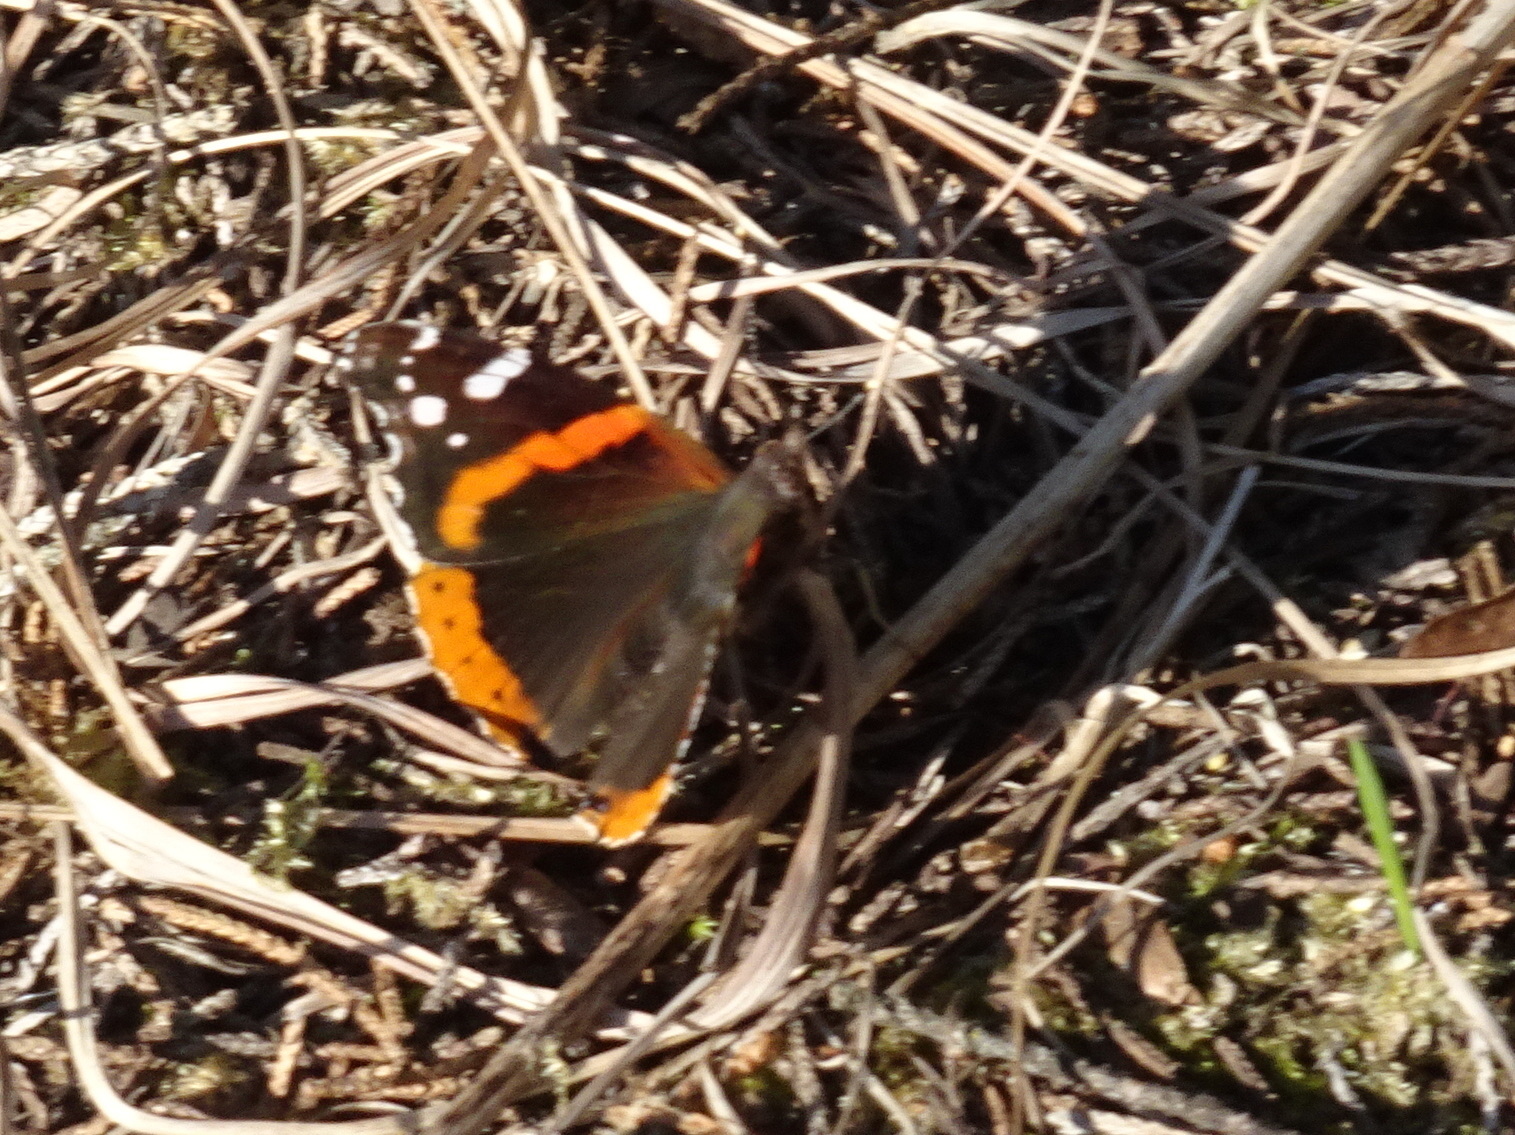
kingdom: Animalia
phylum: Arthropoda
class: Insecta
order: Lepidoptera
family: Nymphalidae
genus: Vanessa
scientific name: Vanessa atalanta
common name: Red admiral
